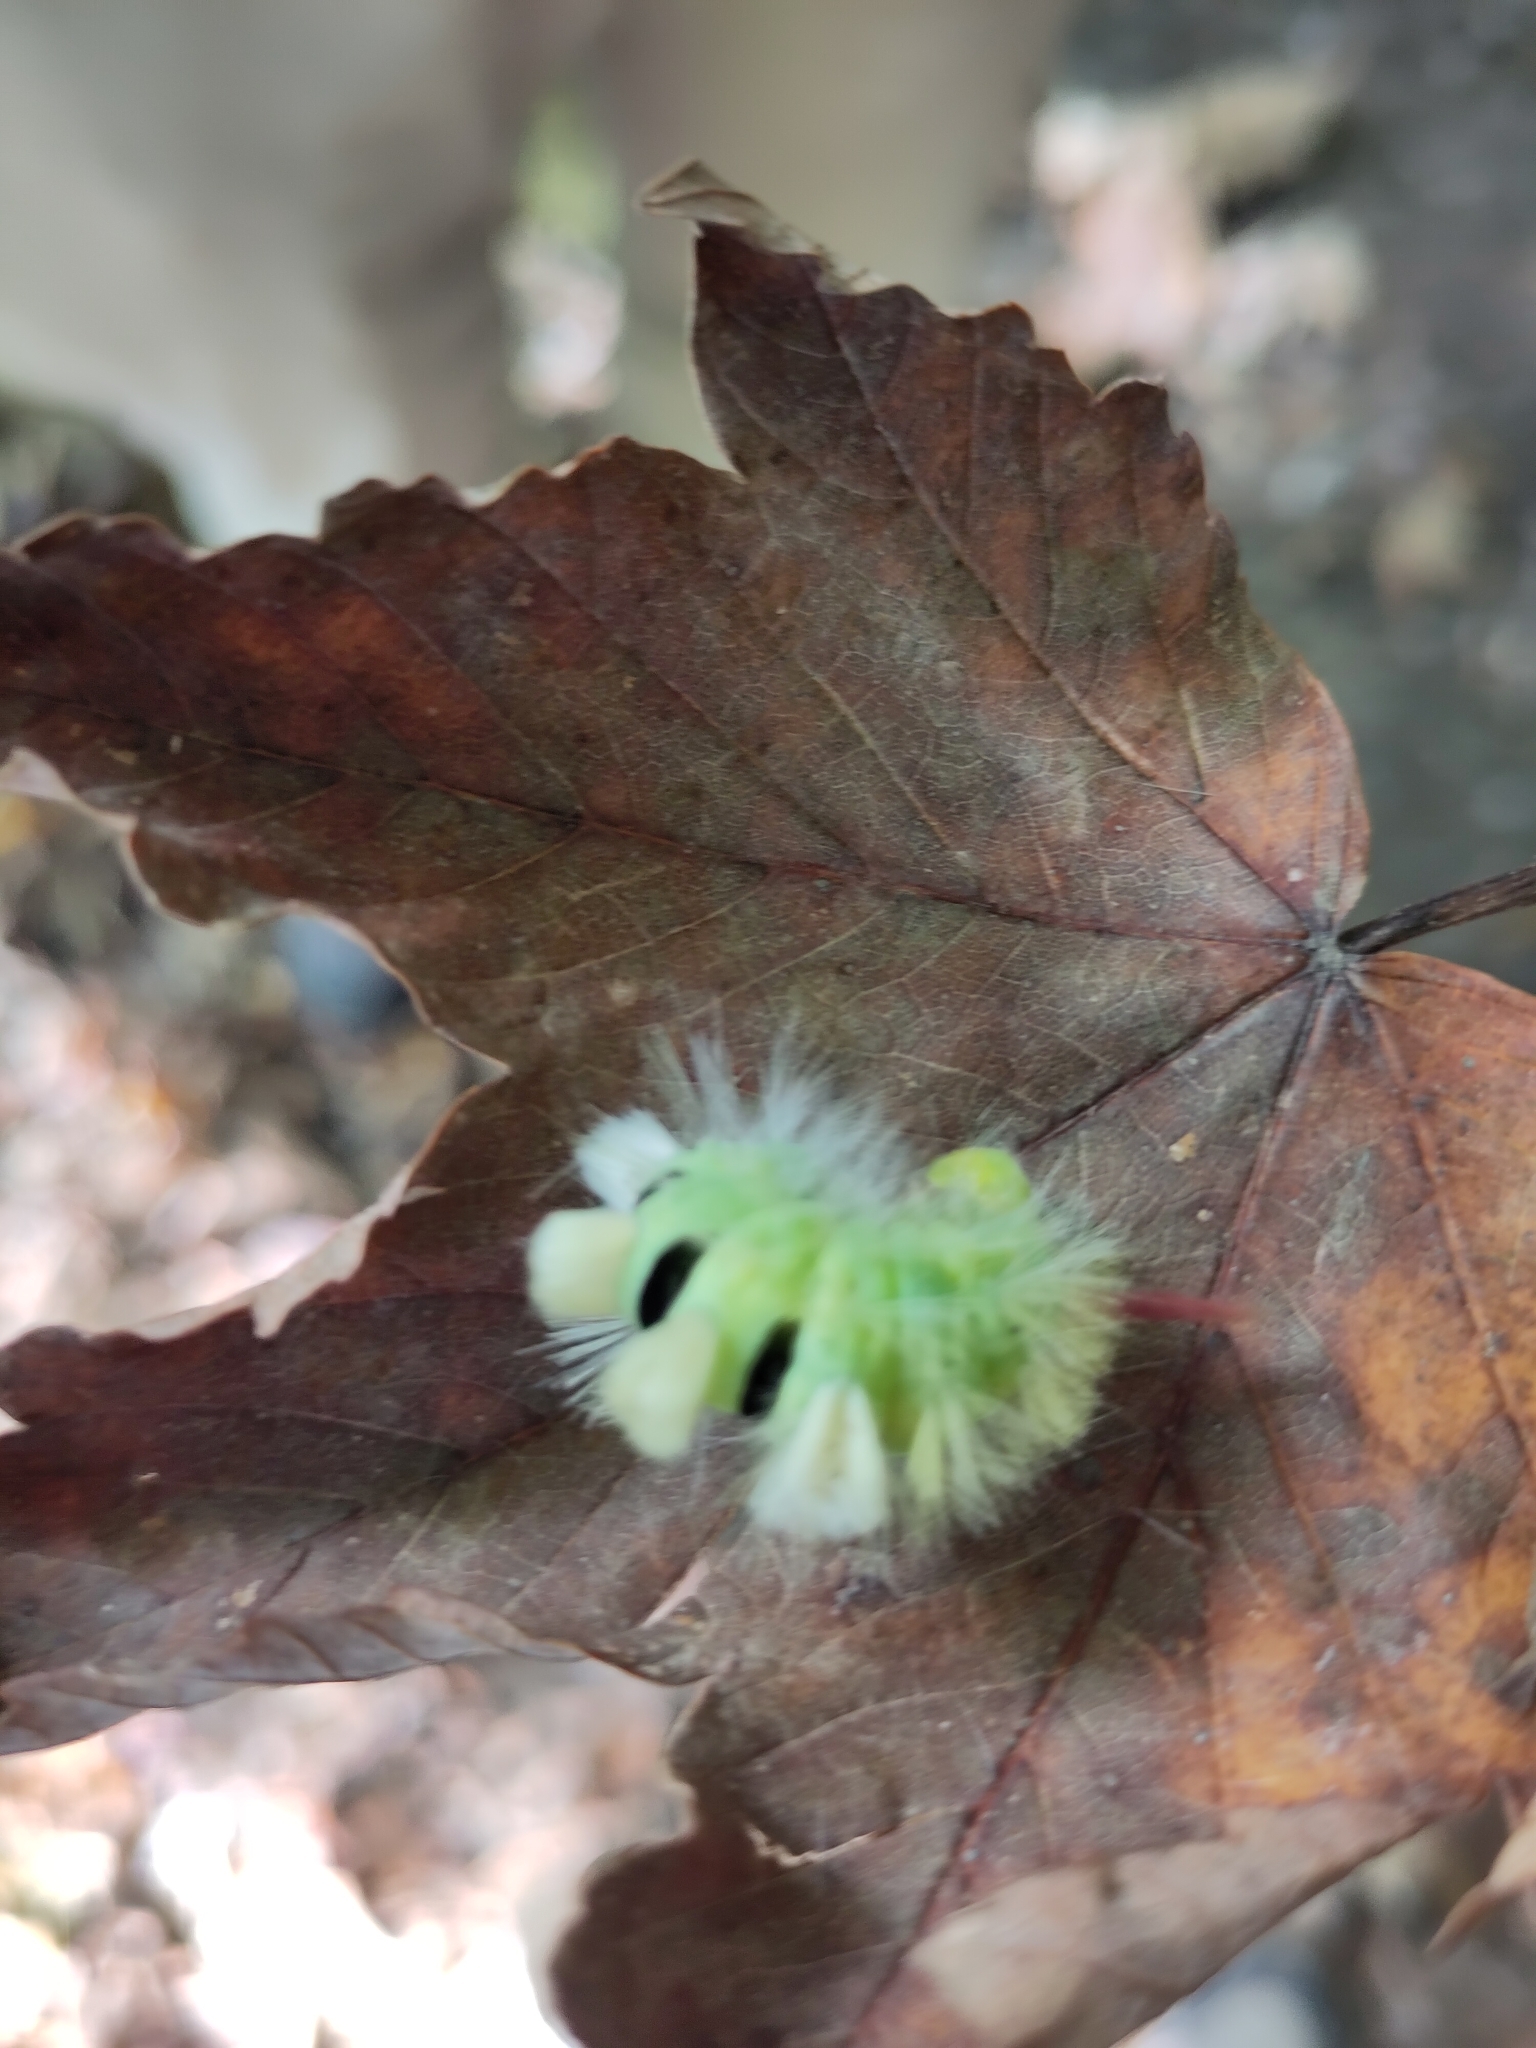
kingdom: Animalia
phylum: Arthropoda
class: Insecta
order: Lepidoptera
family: Erebidae
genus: Calliteara
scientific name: Calliteara pudibunda
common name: Pale tussock
